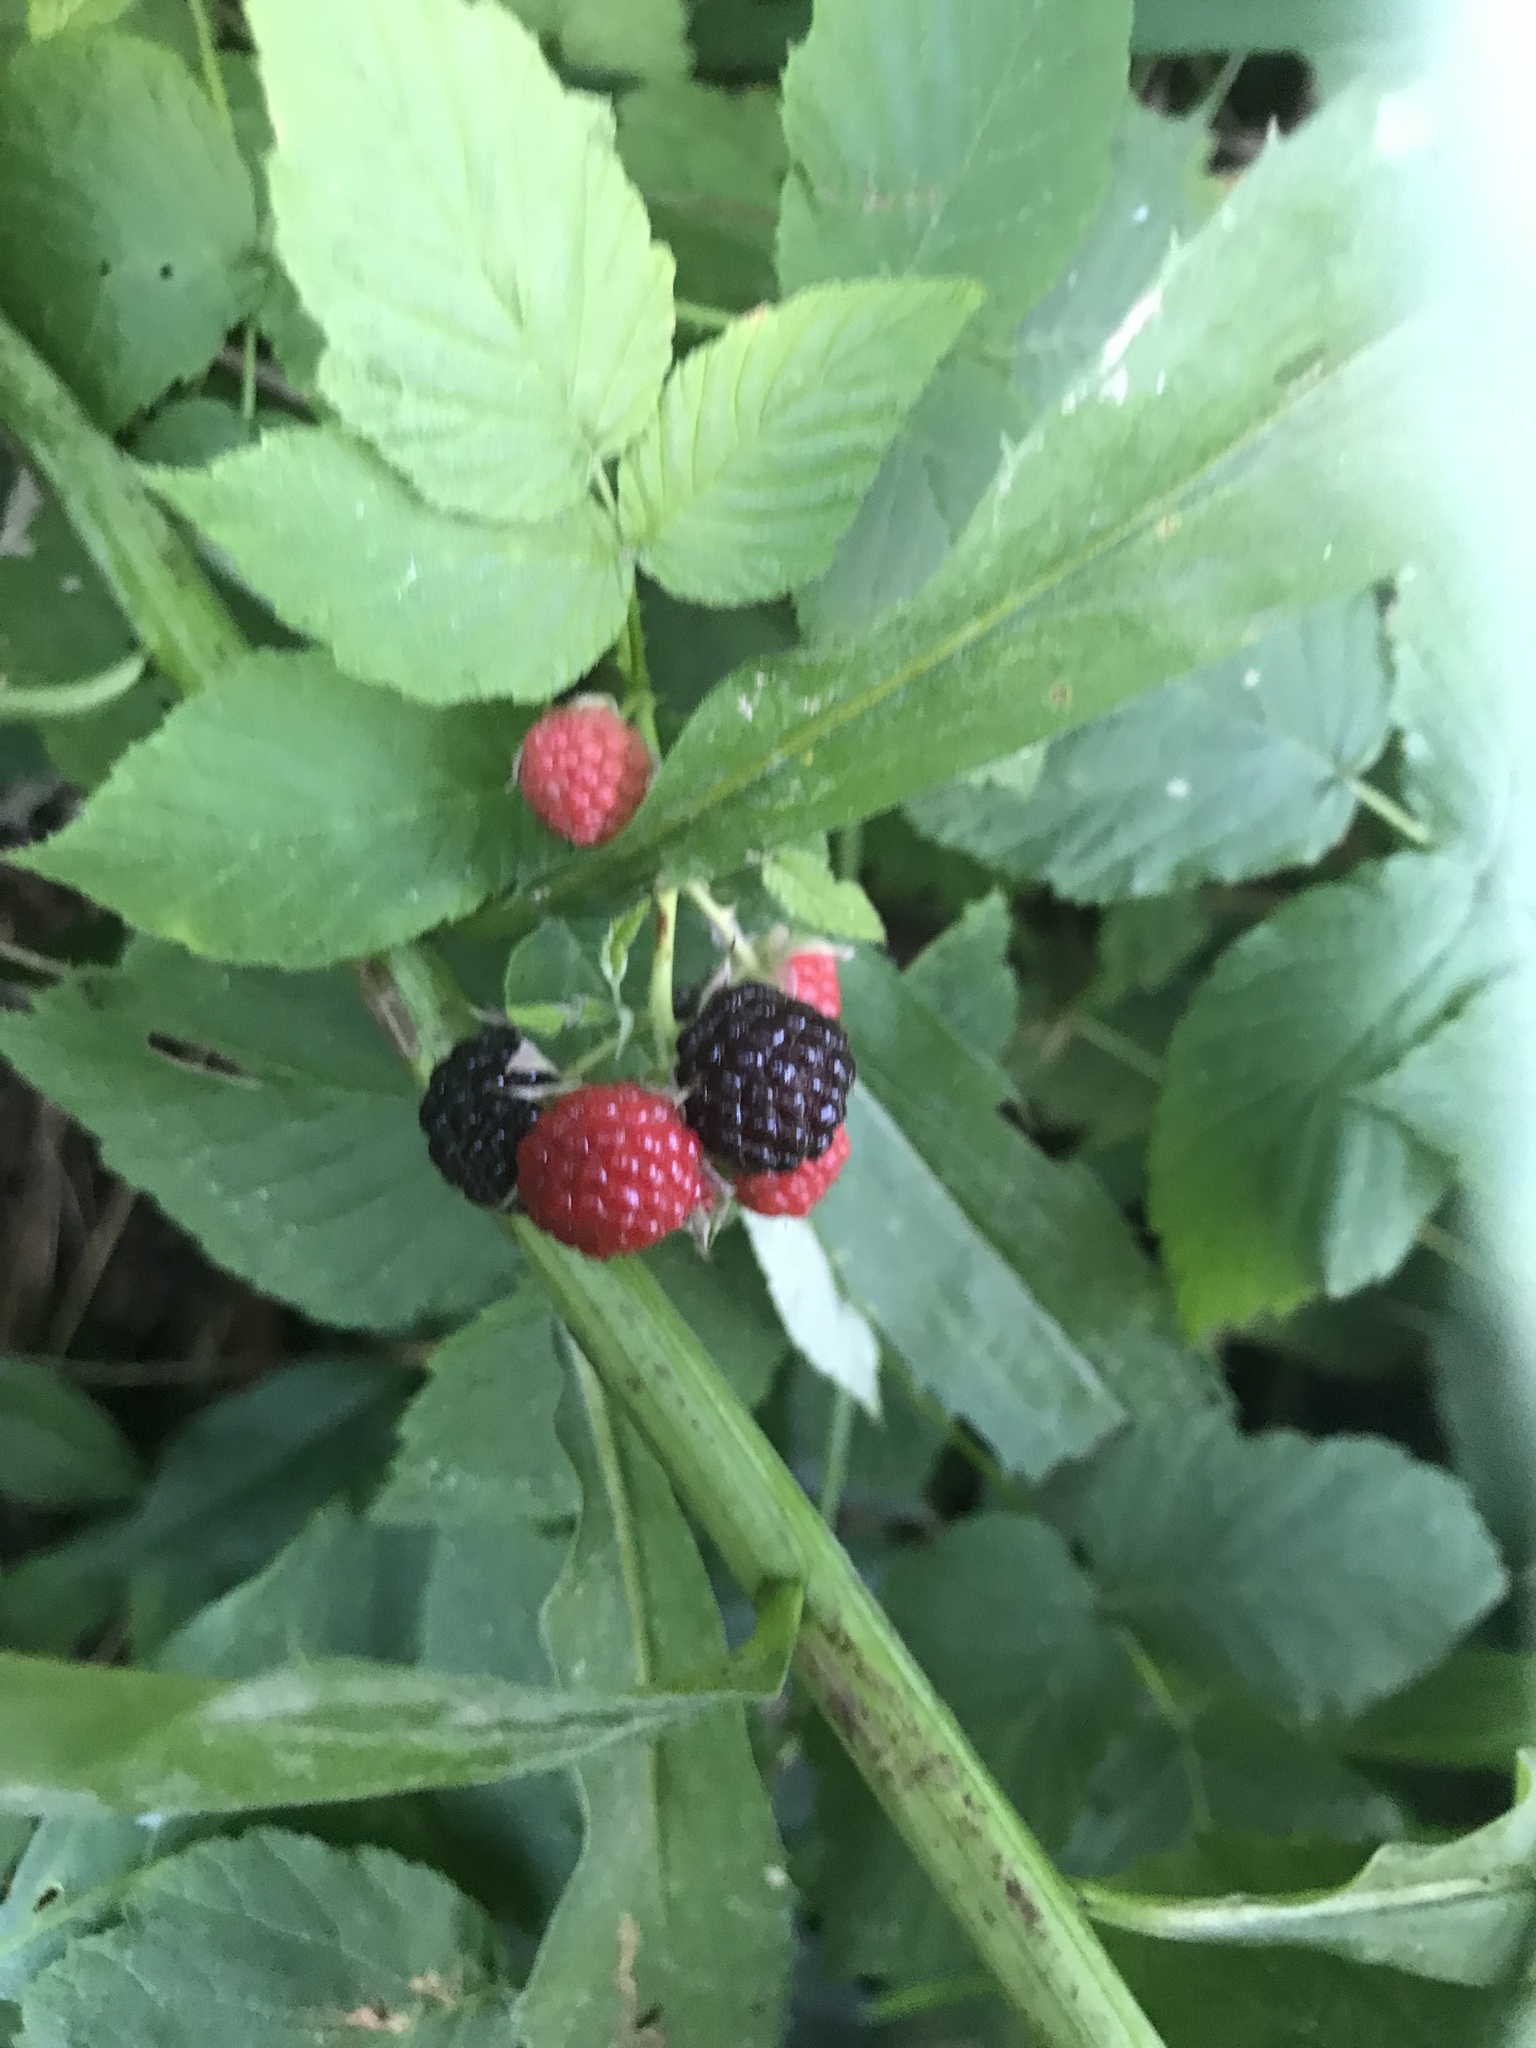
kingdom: Plantae
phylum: Tracheophyta
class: Magnoliopsida
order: Rosales
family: Rosaceae
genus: Rubus
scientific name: Rubus occidentalis
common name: Black raspberry
